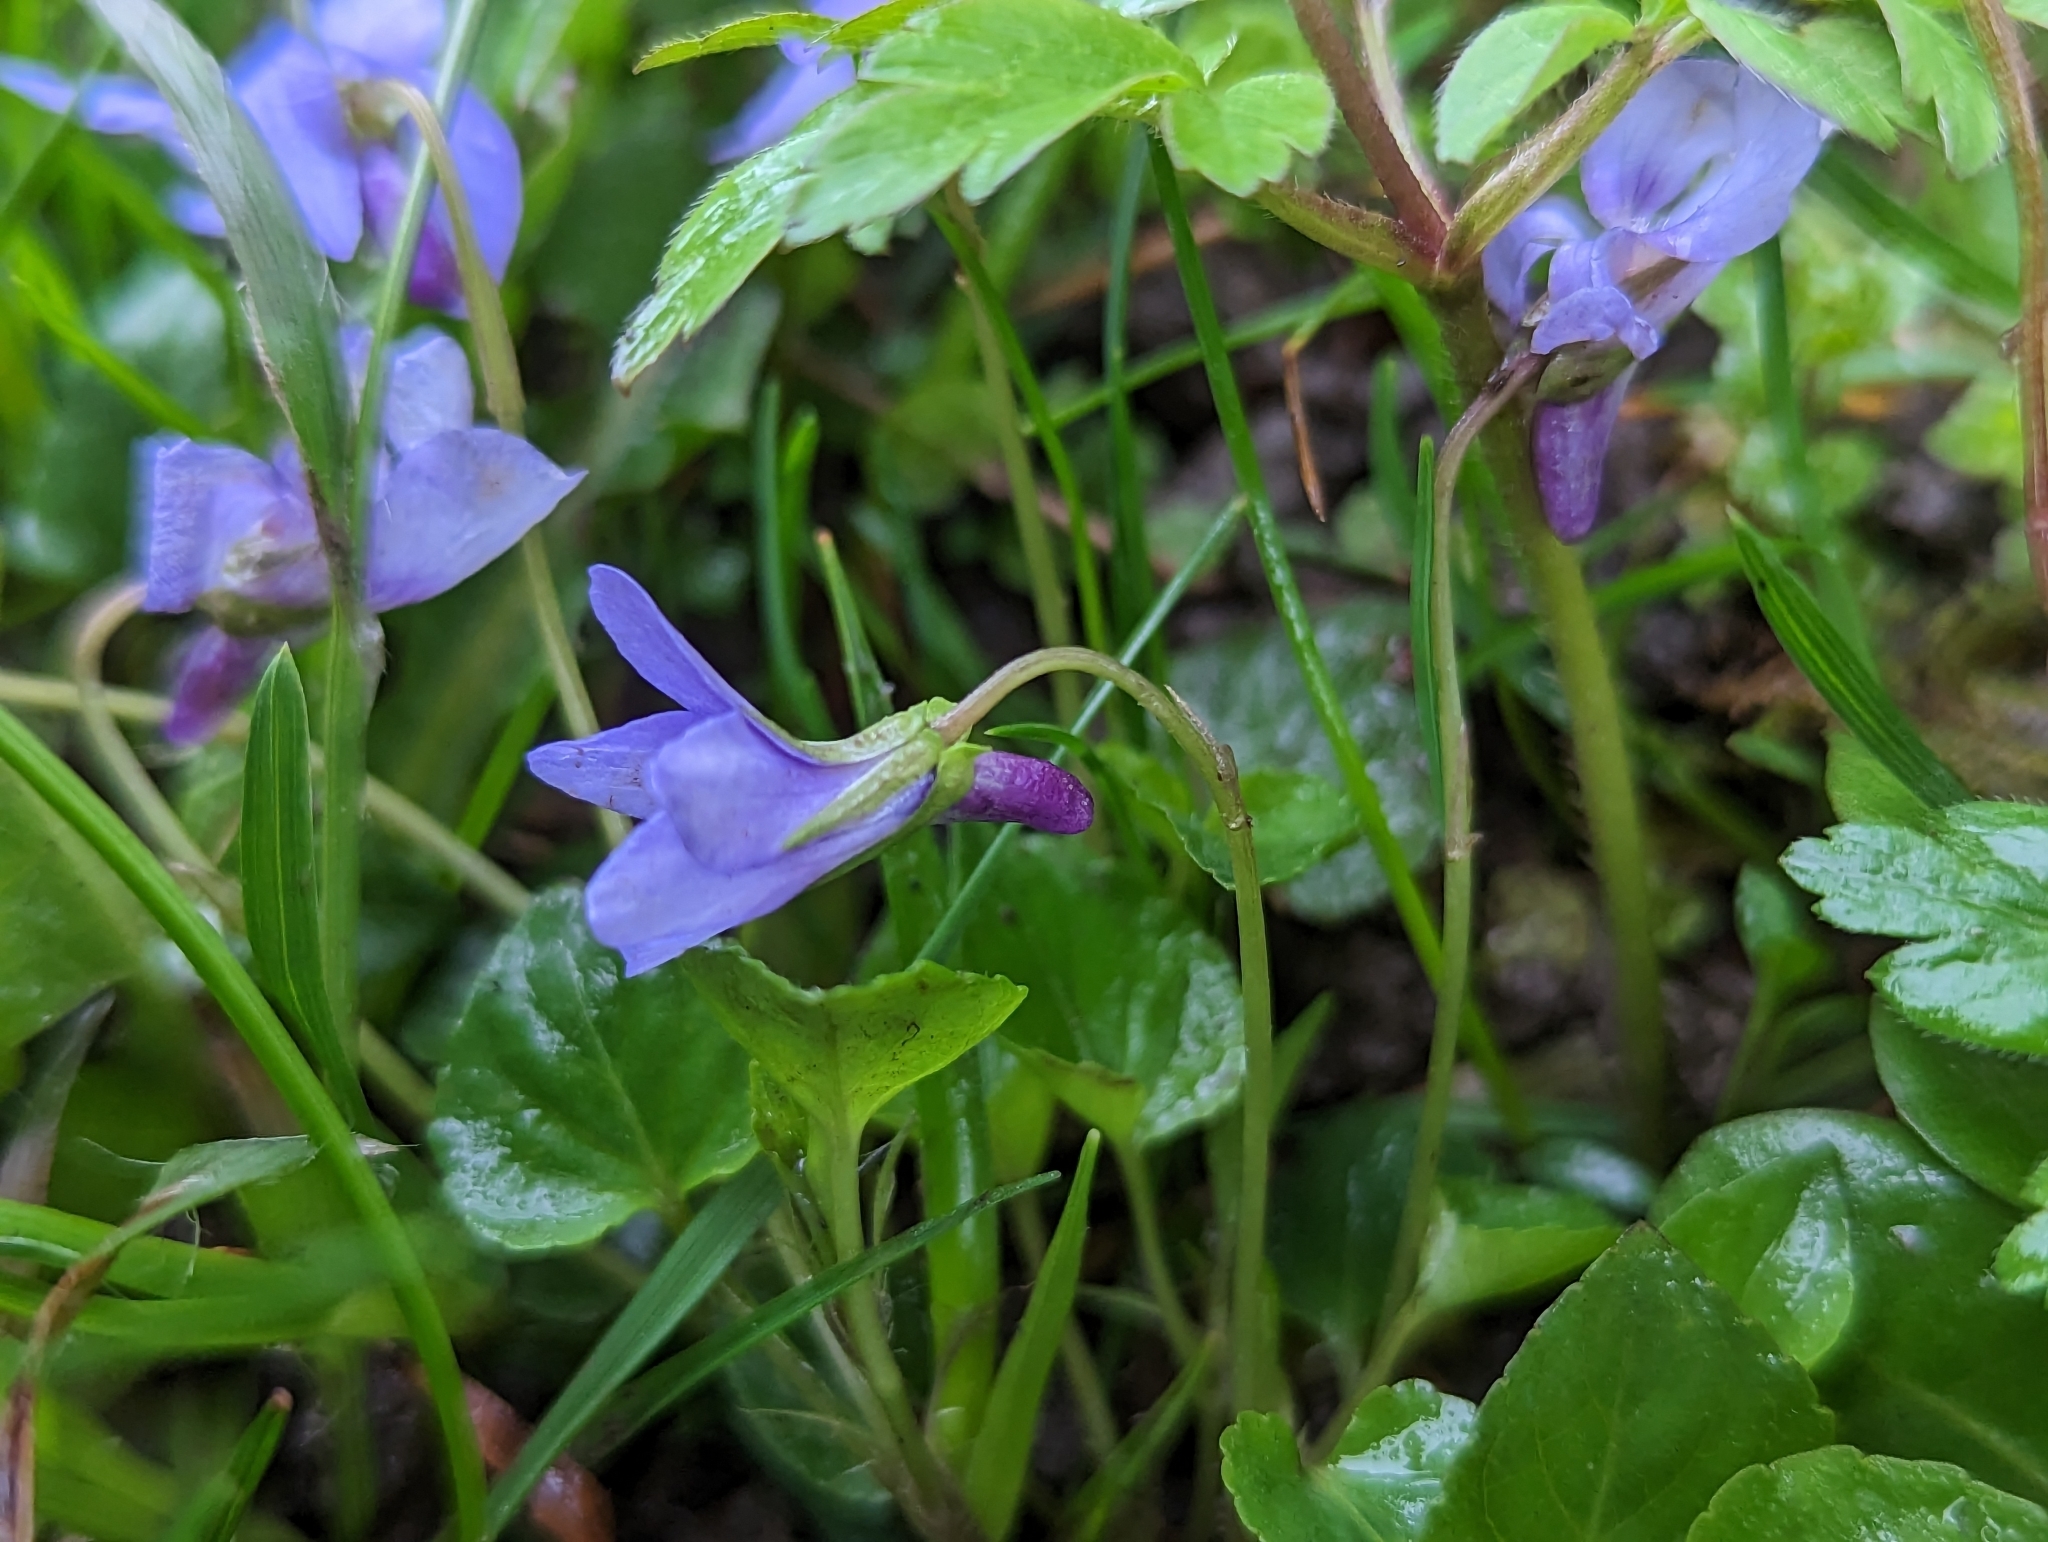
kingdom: Plantae
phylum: Tracheophyta
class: Magnoliopsida
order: Malpighiales
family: Violaceae
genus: Viola
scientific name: Viola reichenbachiana
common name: Early dog-violet
